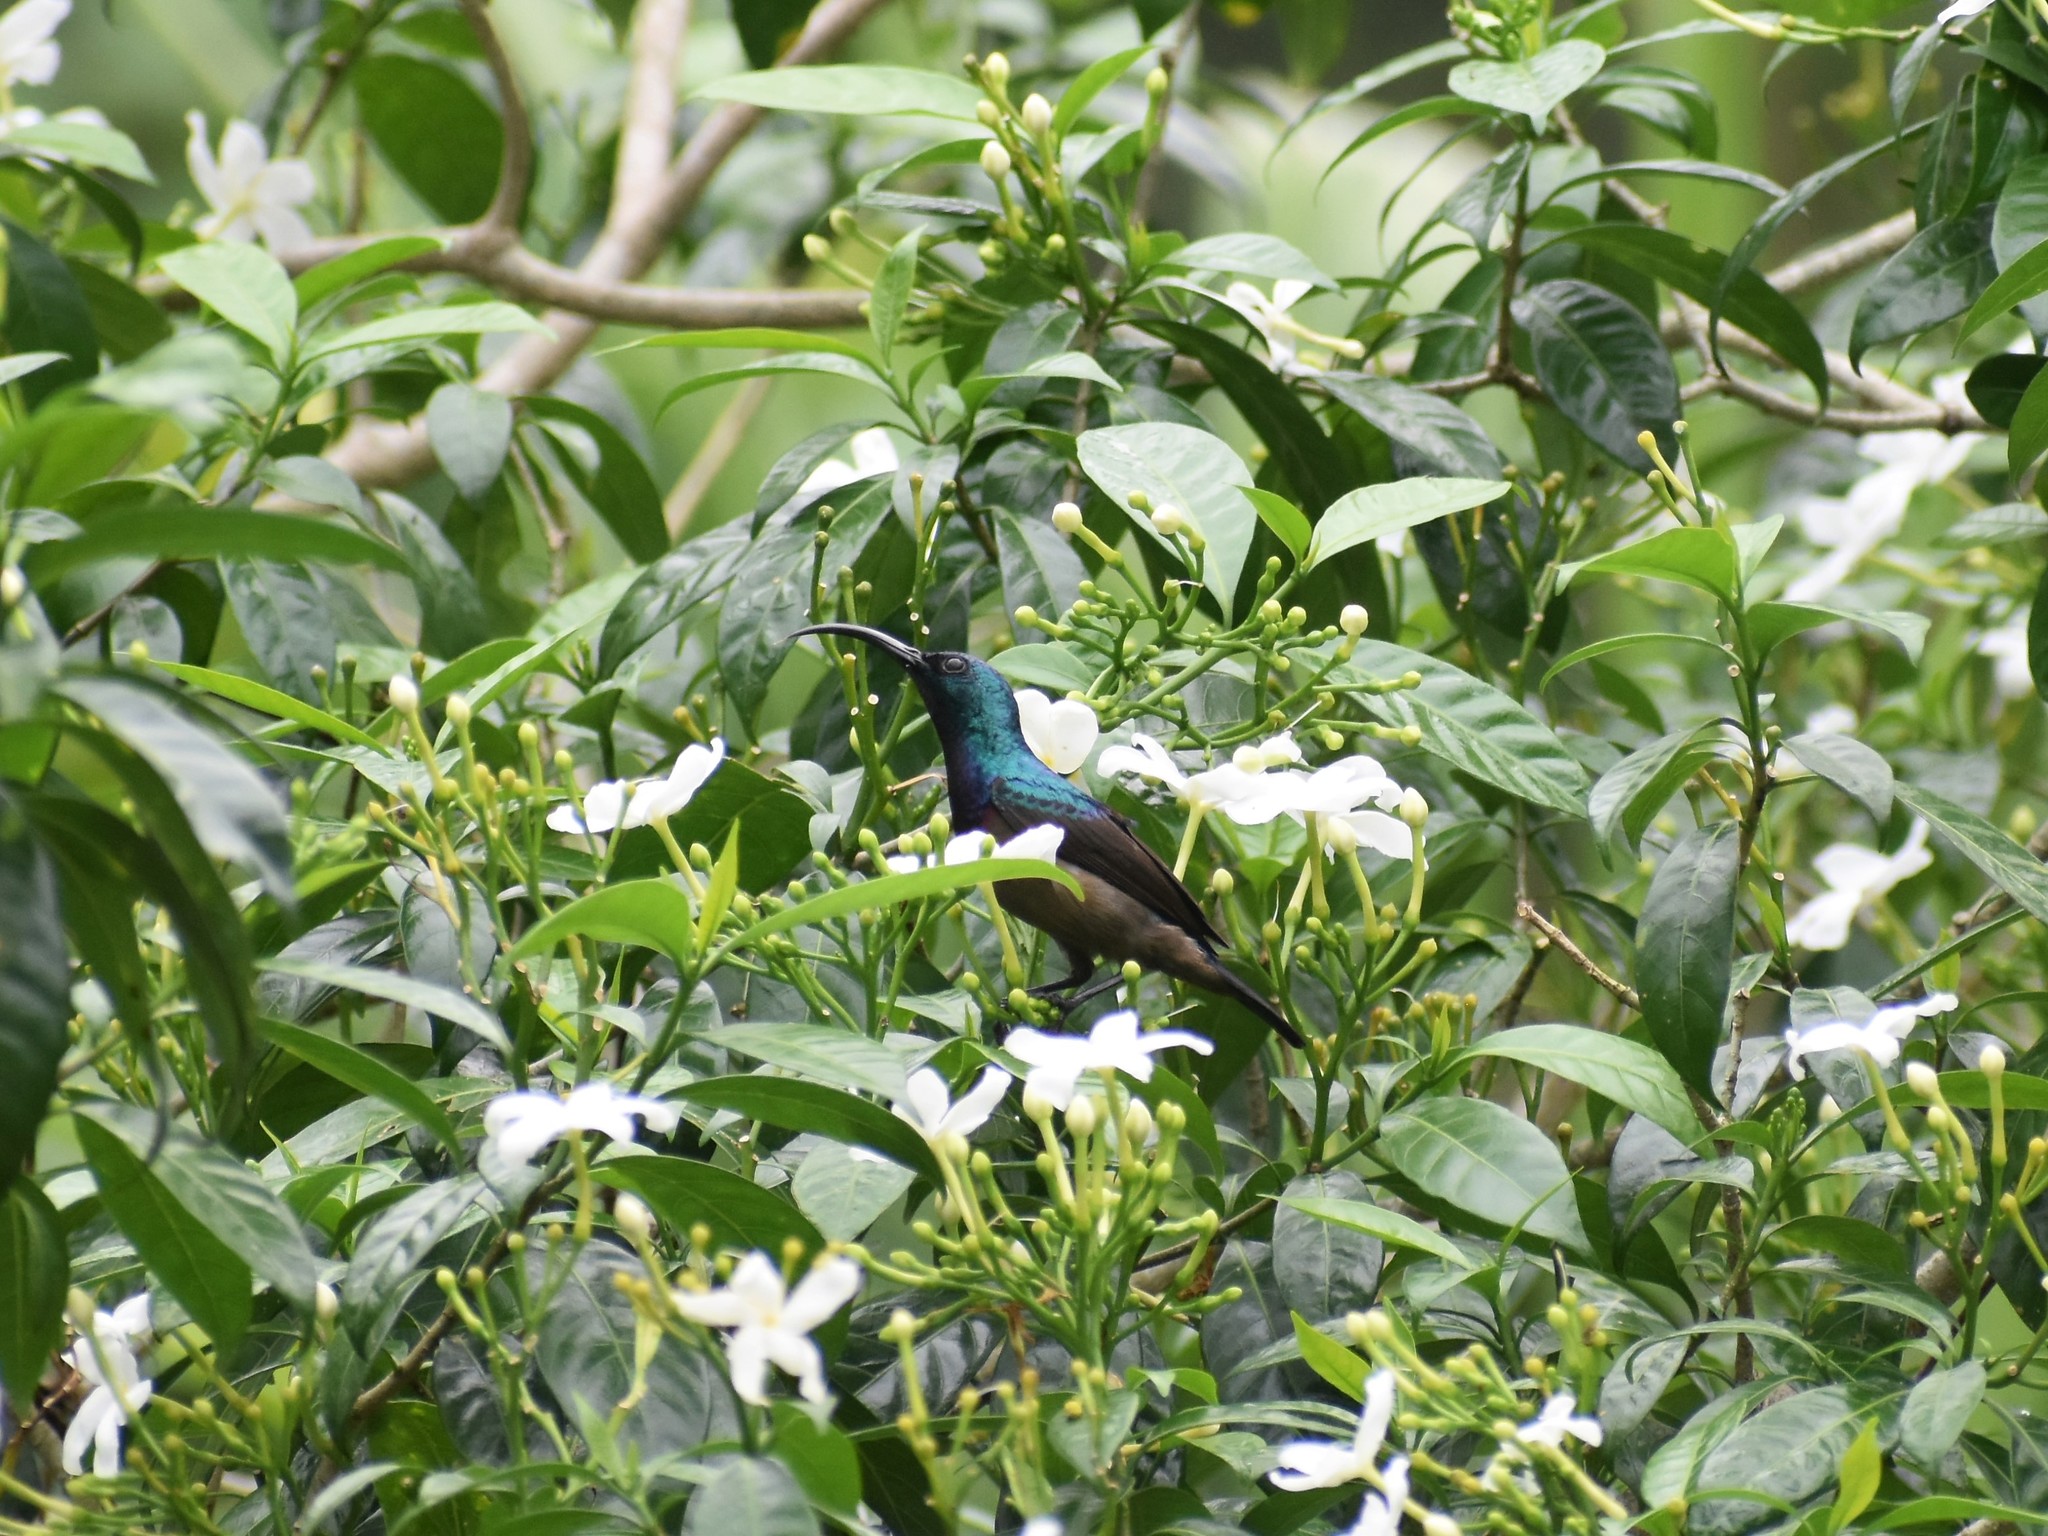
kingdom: Animalia
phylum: Chordata
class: Aves
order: Passeriformes
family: Nectariniidae
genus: Cinnyris
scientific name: Cinnyris lotenius
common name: Loten's sunbird
